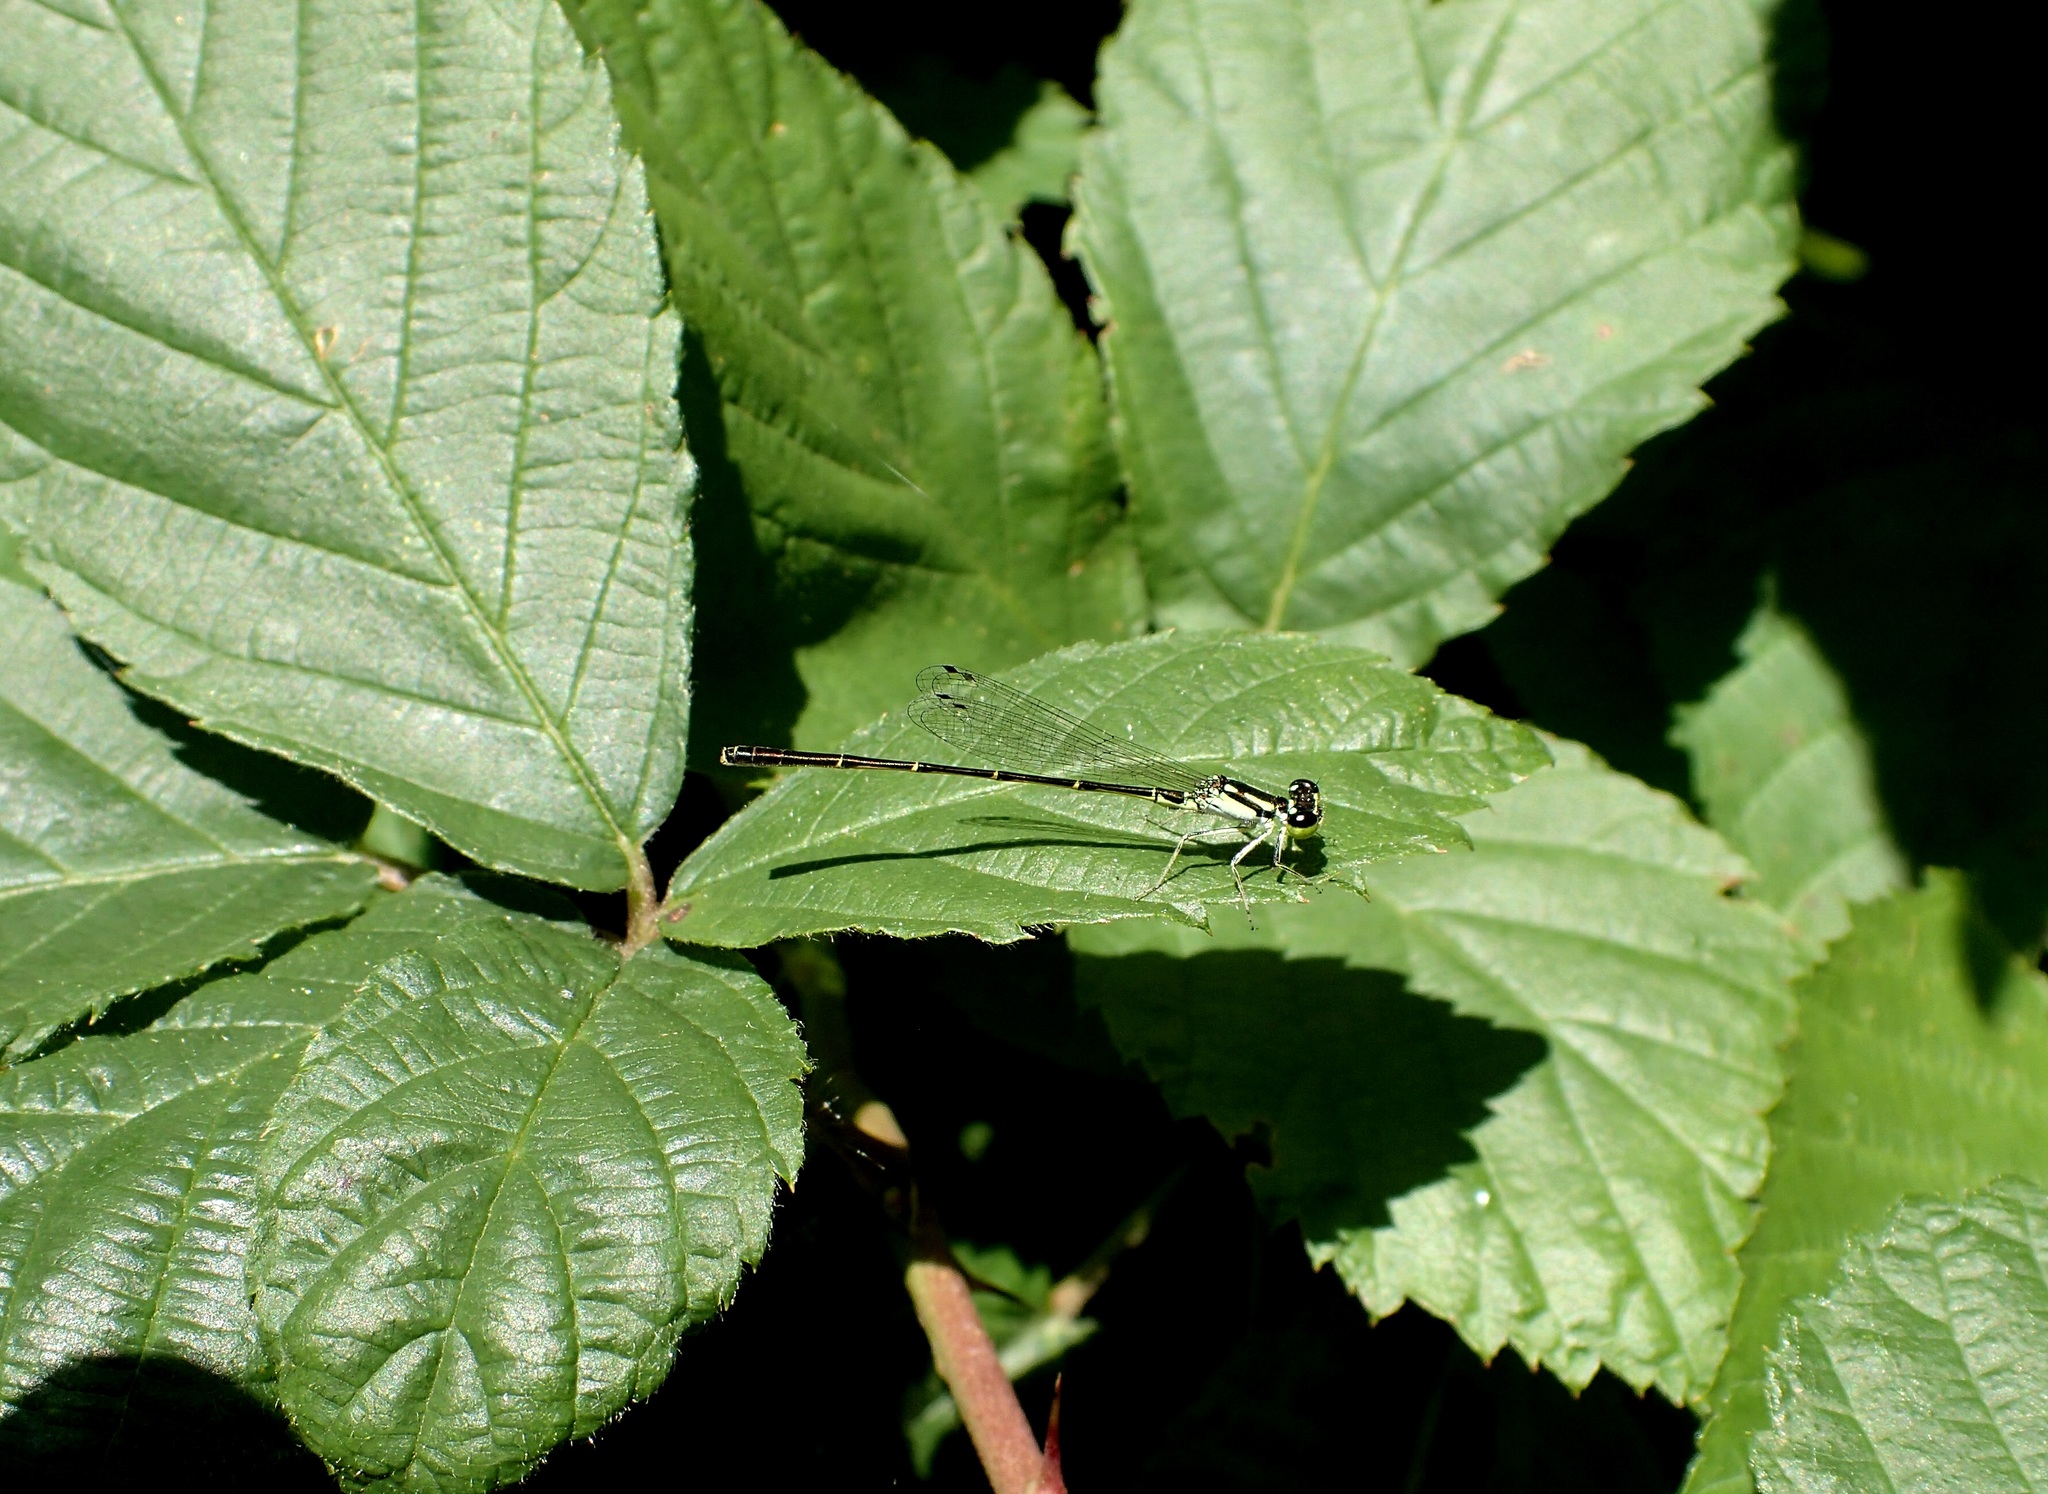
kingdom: Animalia
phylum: Arthropoda
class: Insecta
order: Odonata
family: Coenagrionidae
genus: Ischnura
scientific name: Ischnura posita
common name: Fragile forktail
